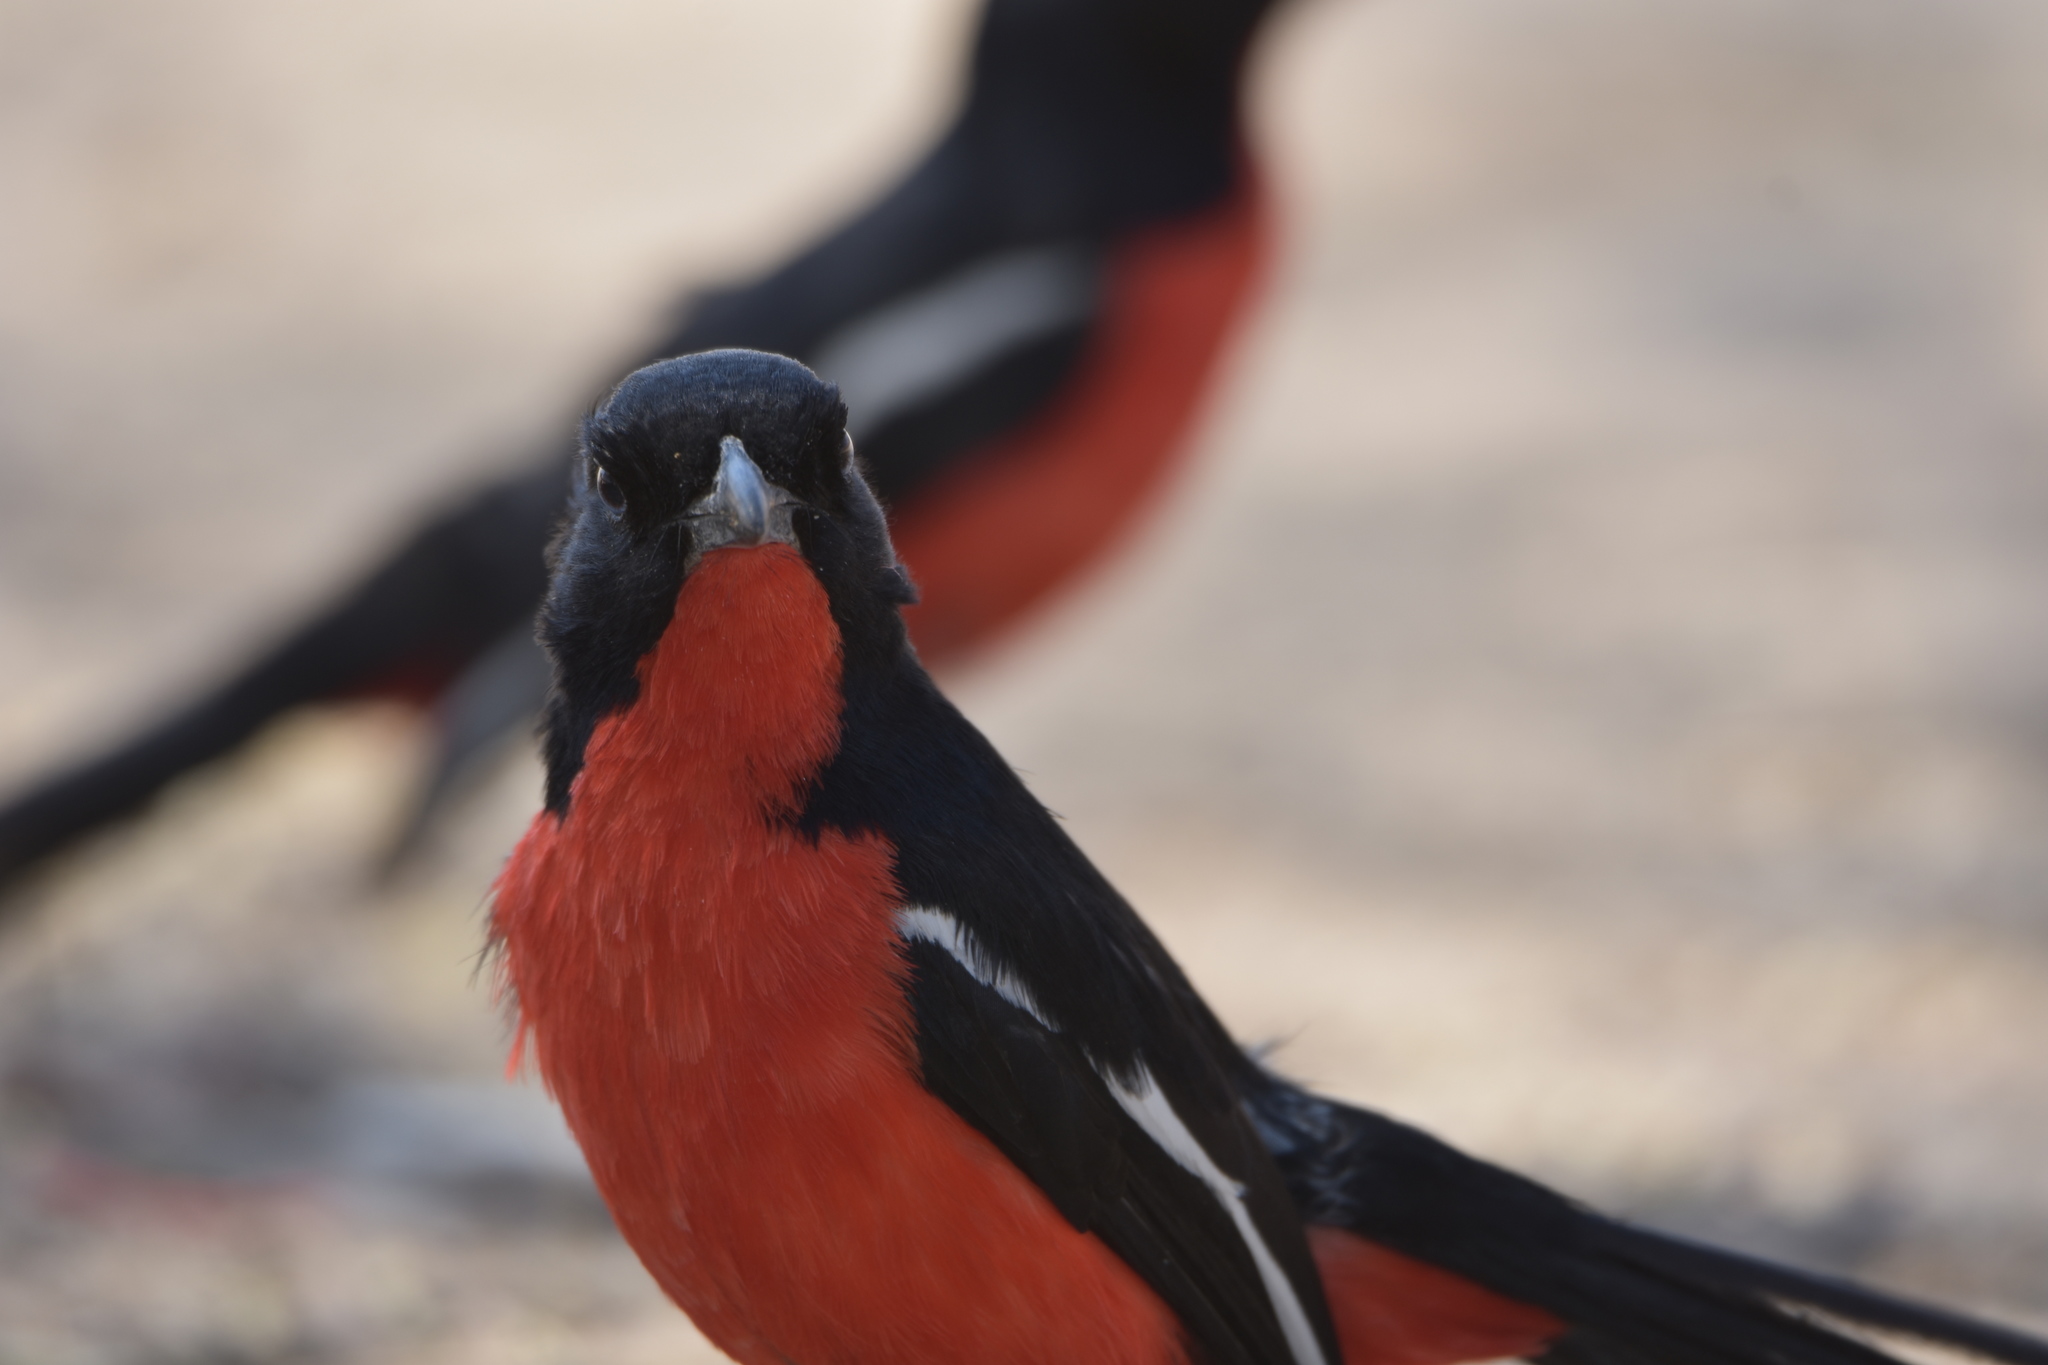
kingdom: Animalia
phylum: Chordata
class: Aves
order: Passeriformes
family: Malaconotidae
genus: Laniarius
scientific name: Laniarius atrococcineus
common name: Crimson-breasted shrike
